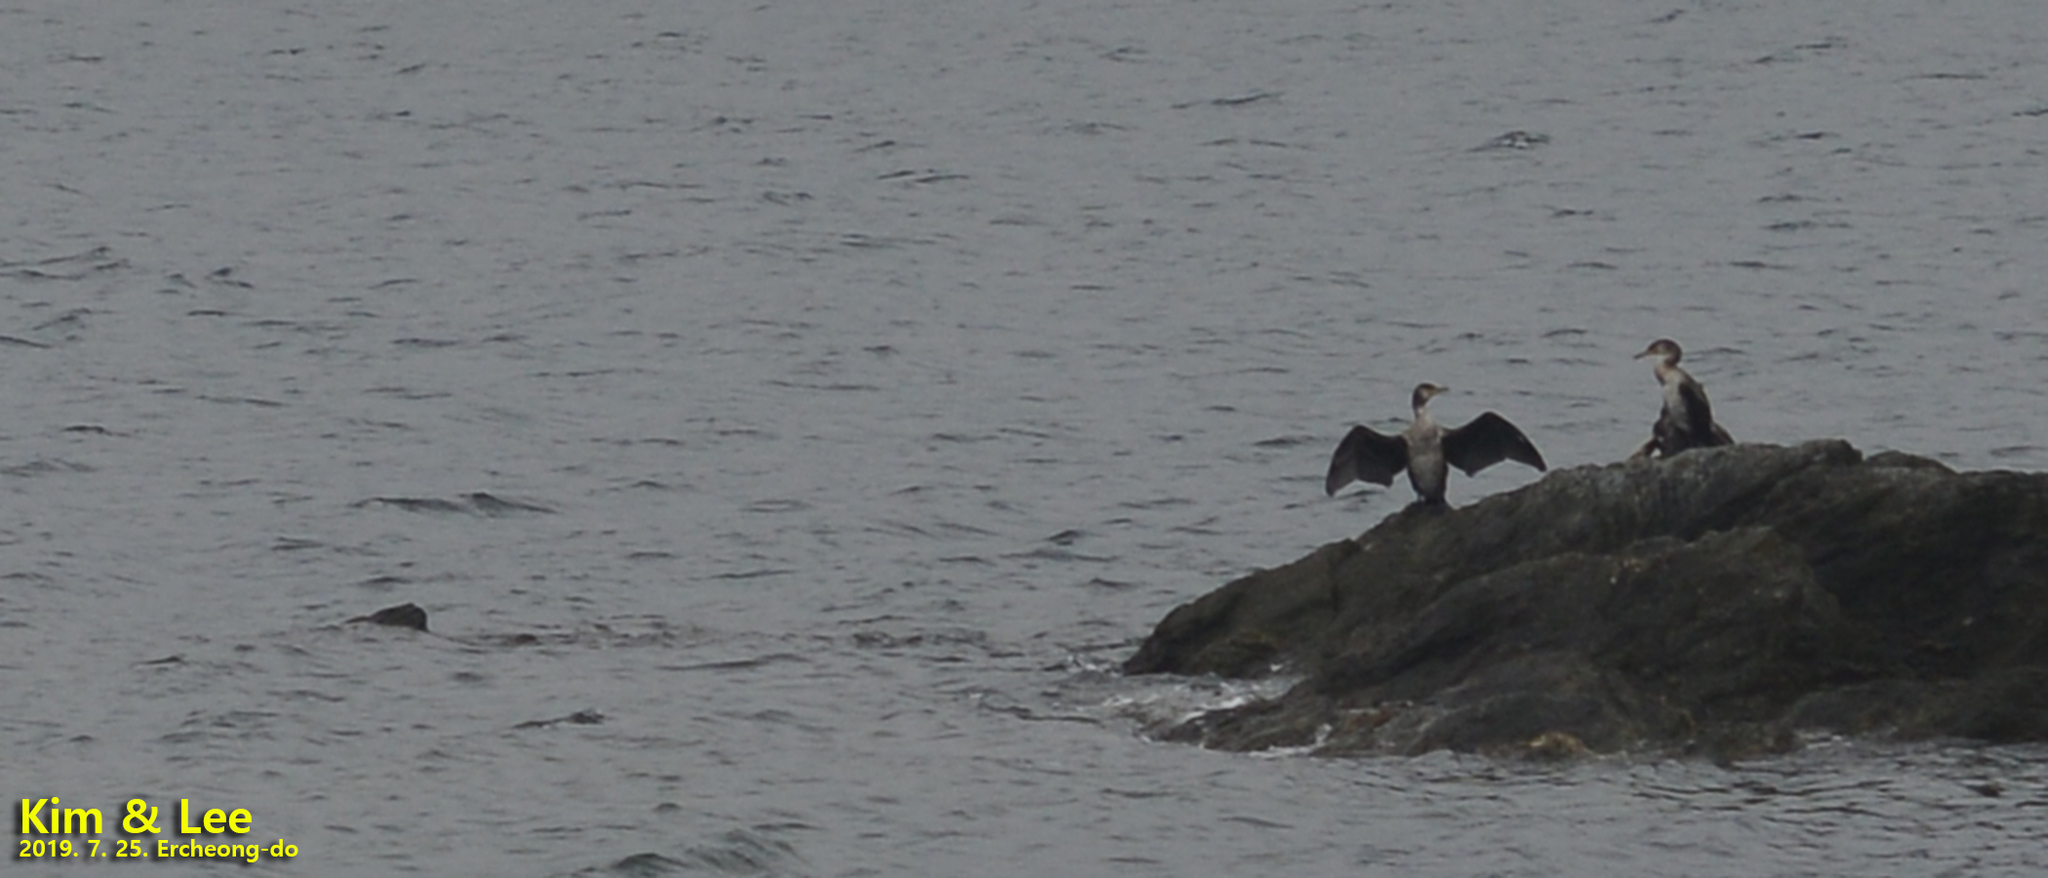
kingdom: Animalia
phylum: Chordata
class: Aves
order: Suliformes
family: Phalacrocoracidae
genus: Phalacrocorax
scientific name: Phalacrocorax capillatus
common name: Japanese cormorant
